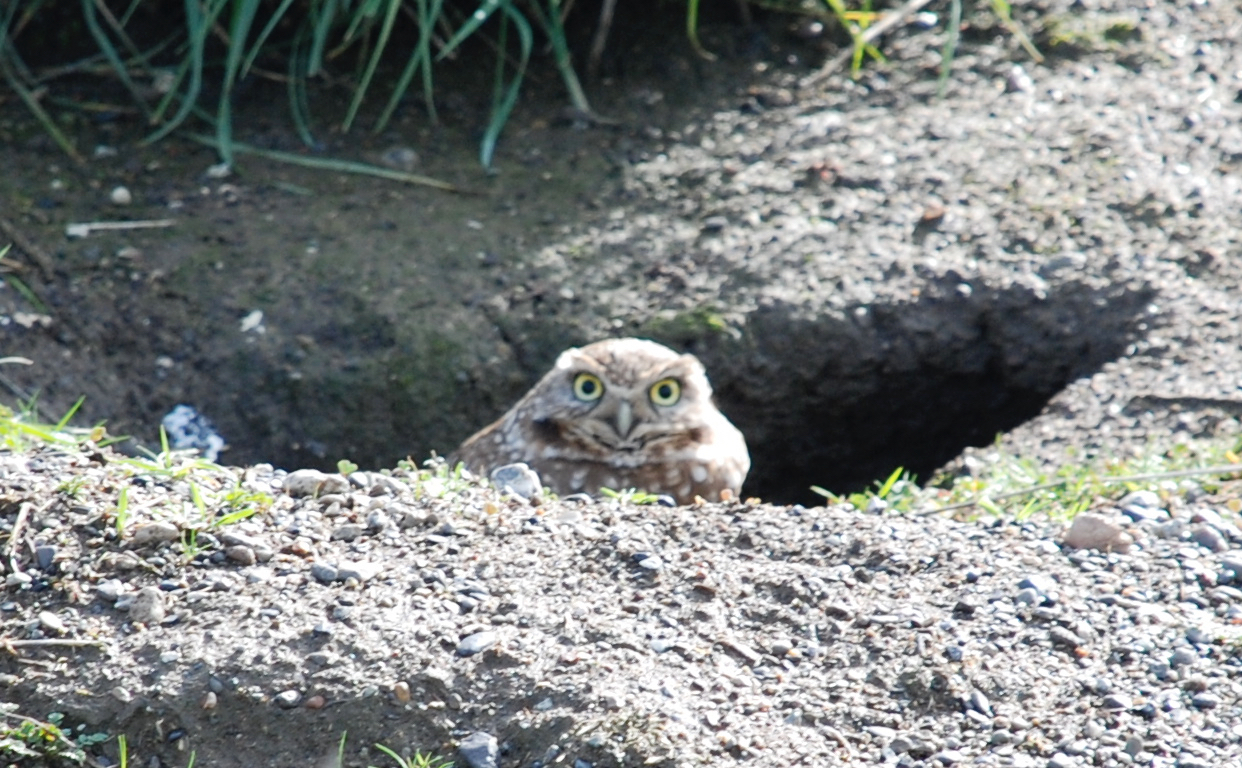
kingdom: Animalia
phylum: Chordata
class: Aves
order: Strigiformes
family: Strigidae
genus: Athene
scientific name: Athene cunicularia
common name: Burrowing owl
